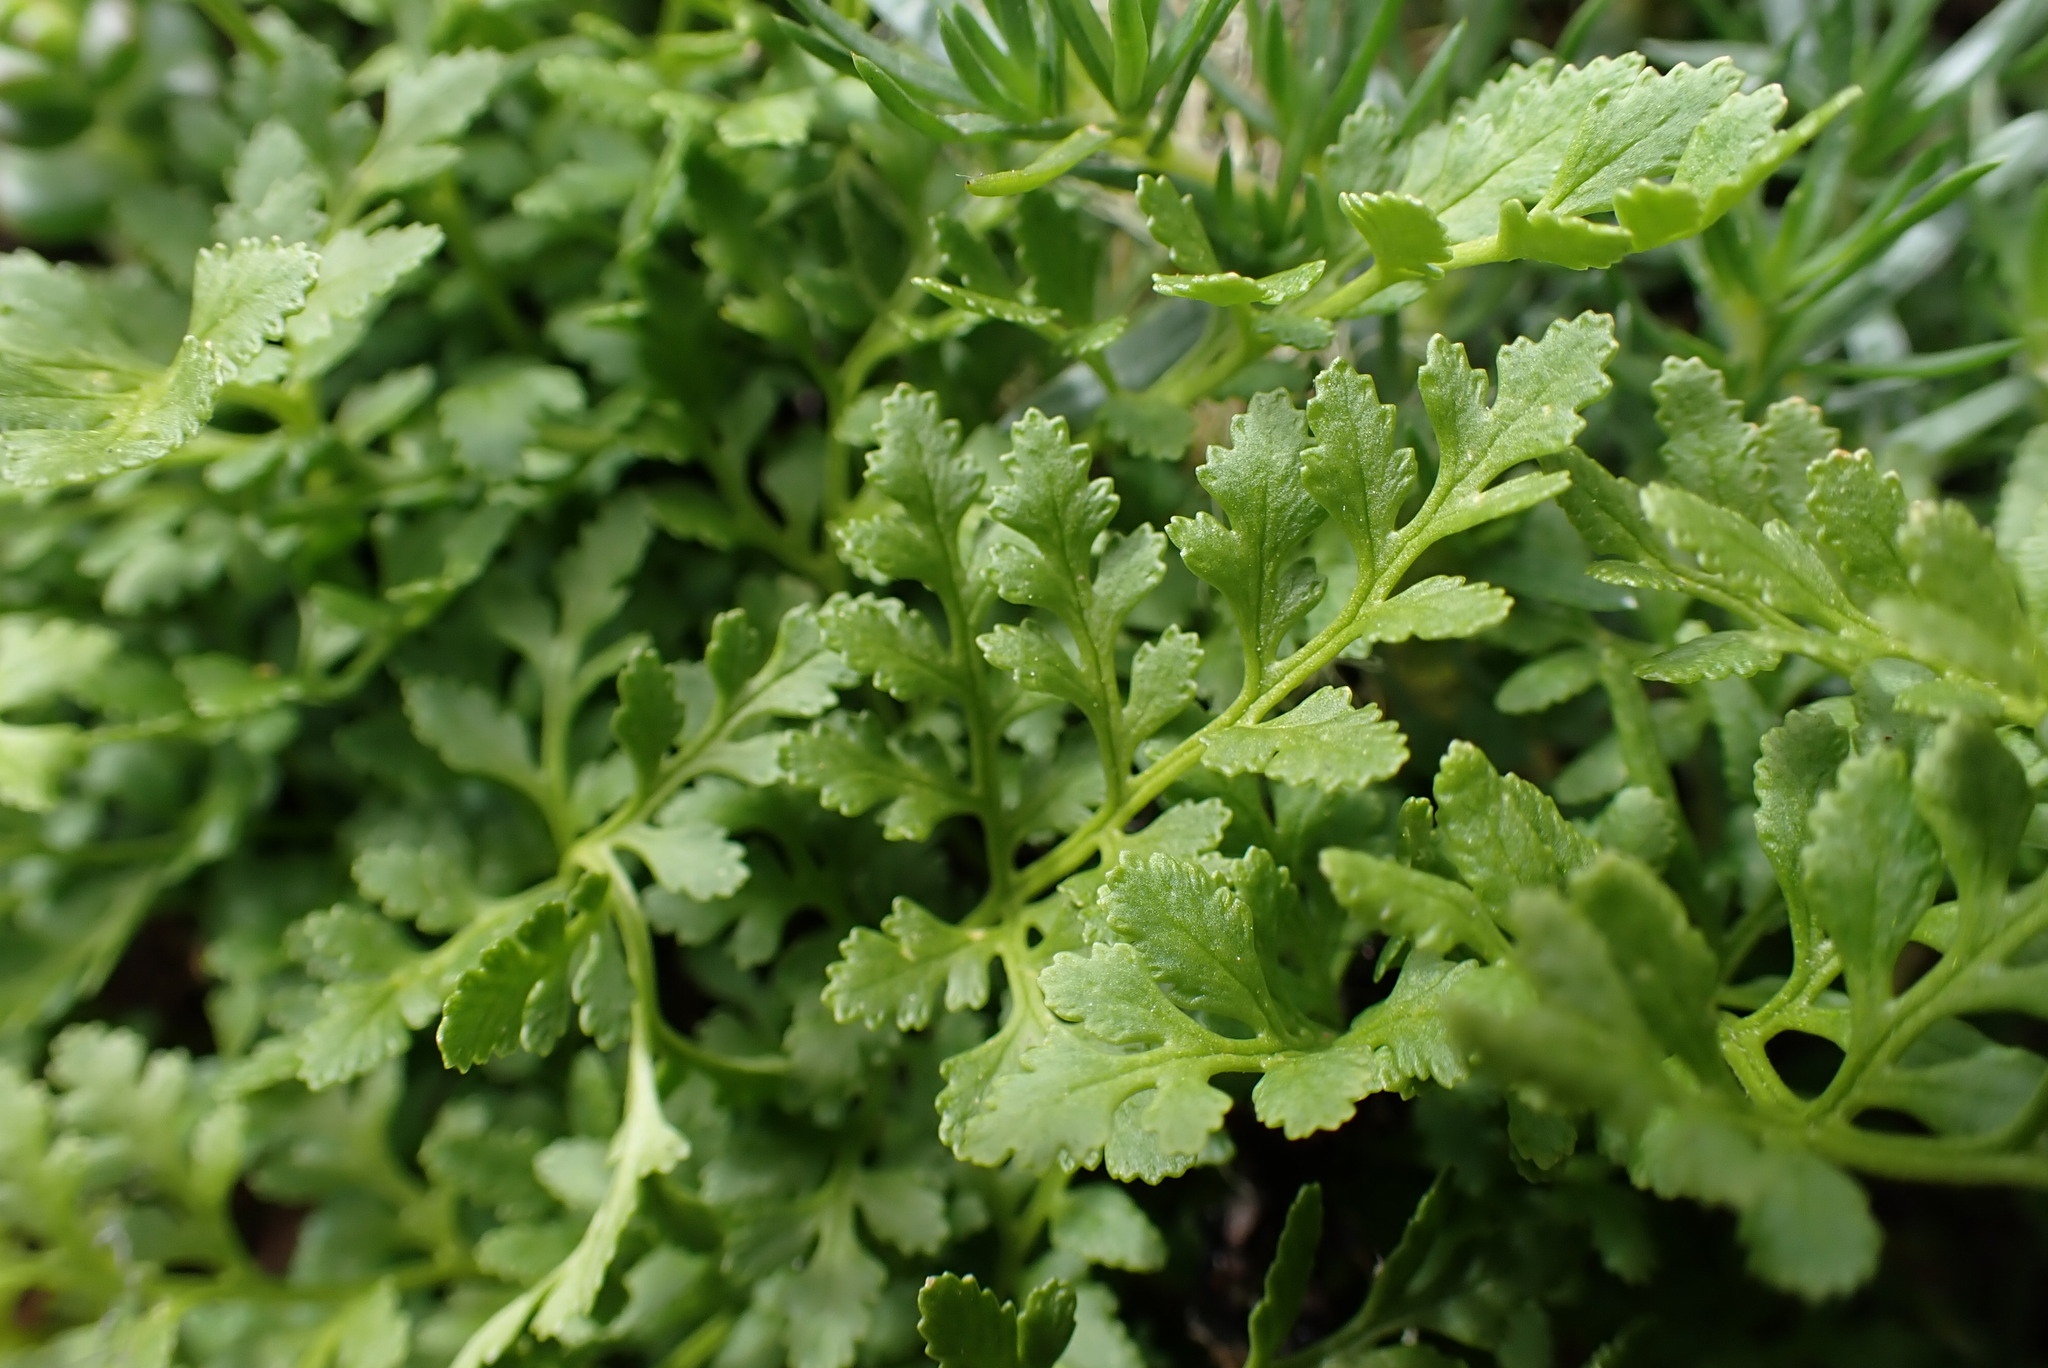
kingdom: Plantae
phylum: Tracheophyta
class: Polypodiopsida
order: Polypodiales
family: Pteridaceae
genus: Cryptogramma
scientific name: Cryptogramma acrostichoides
